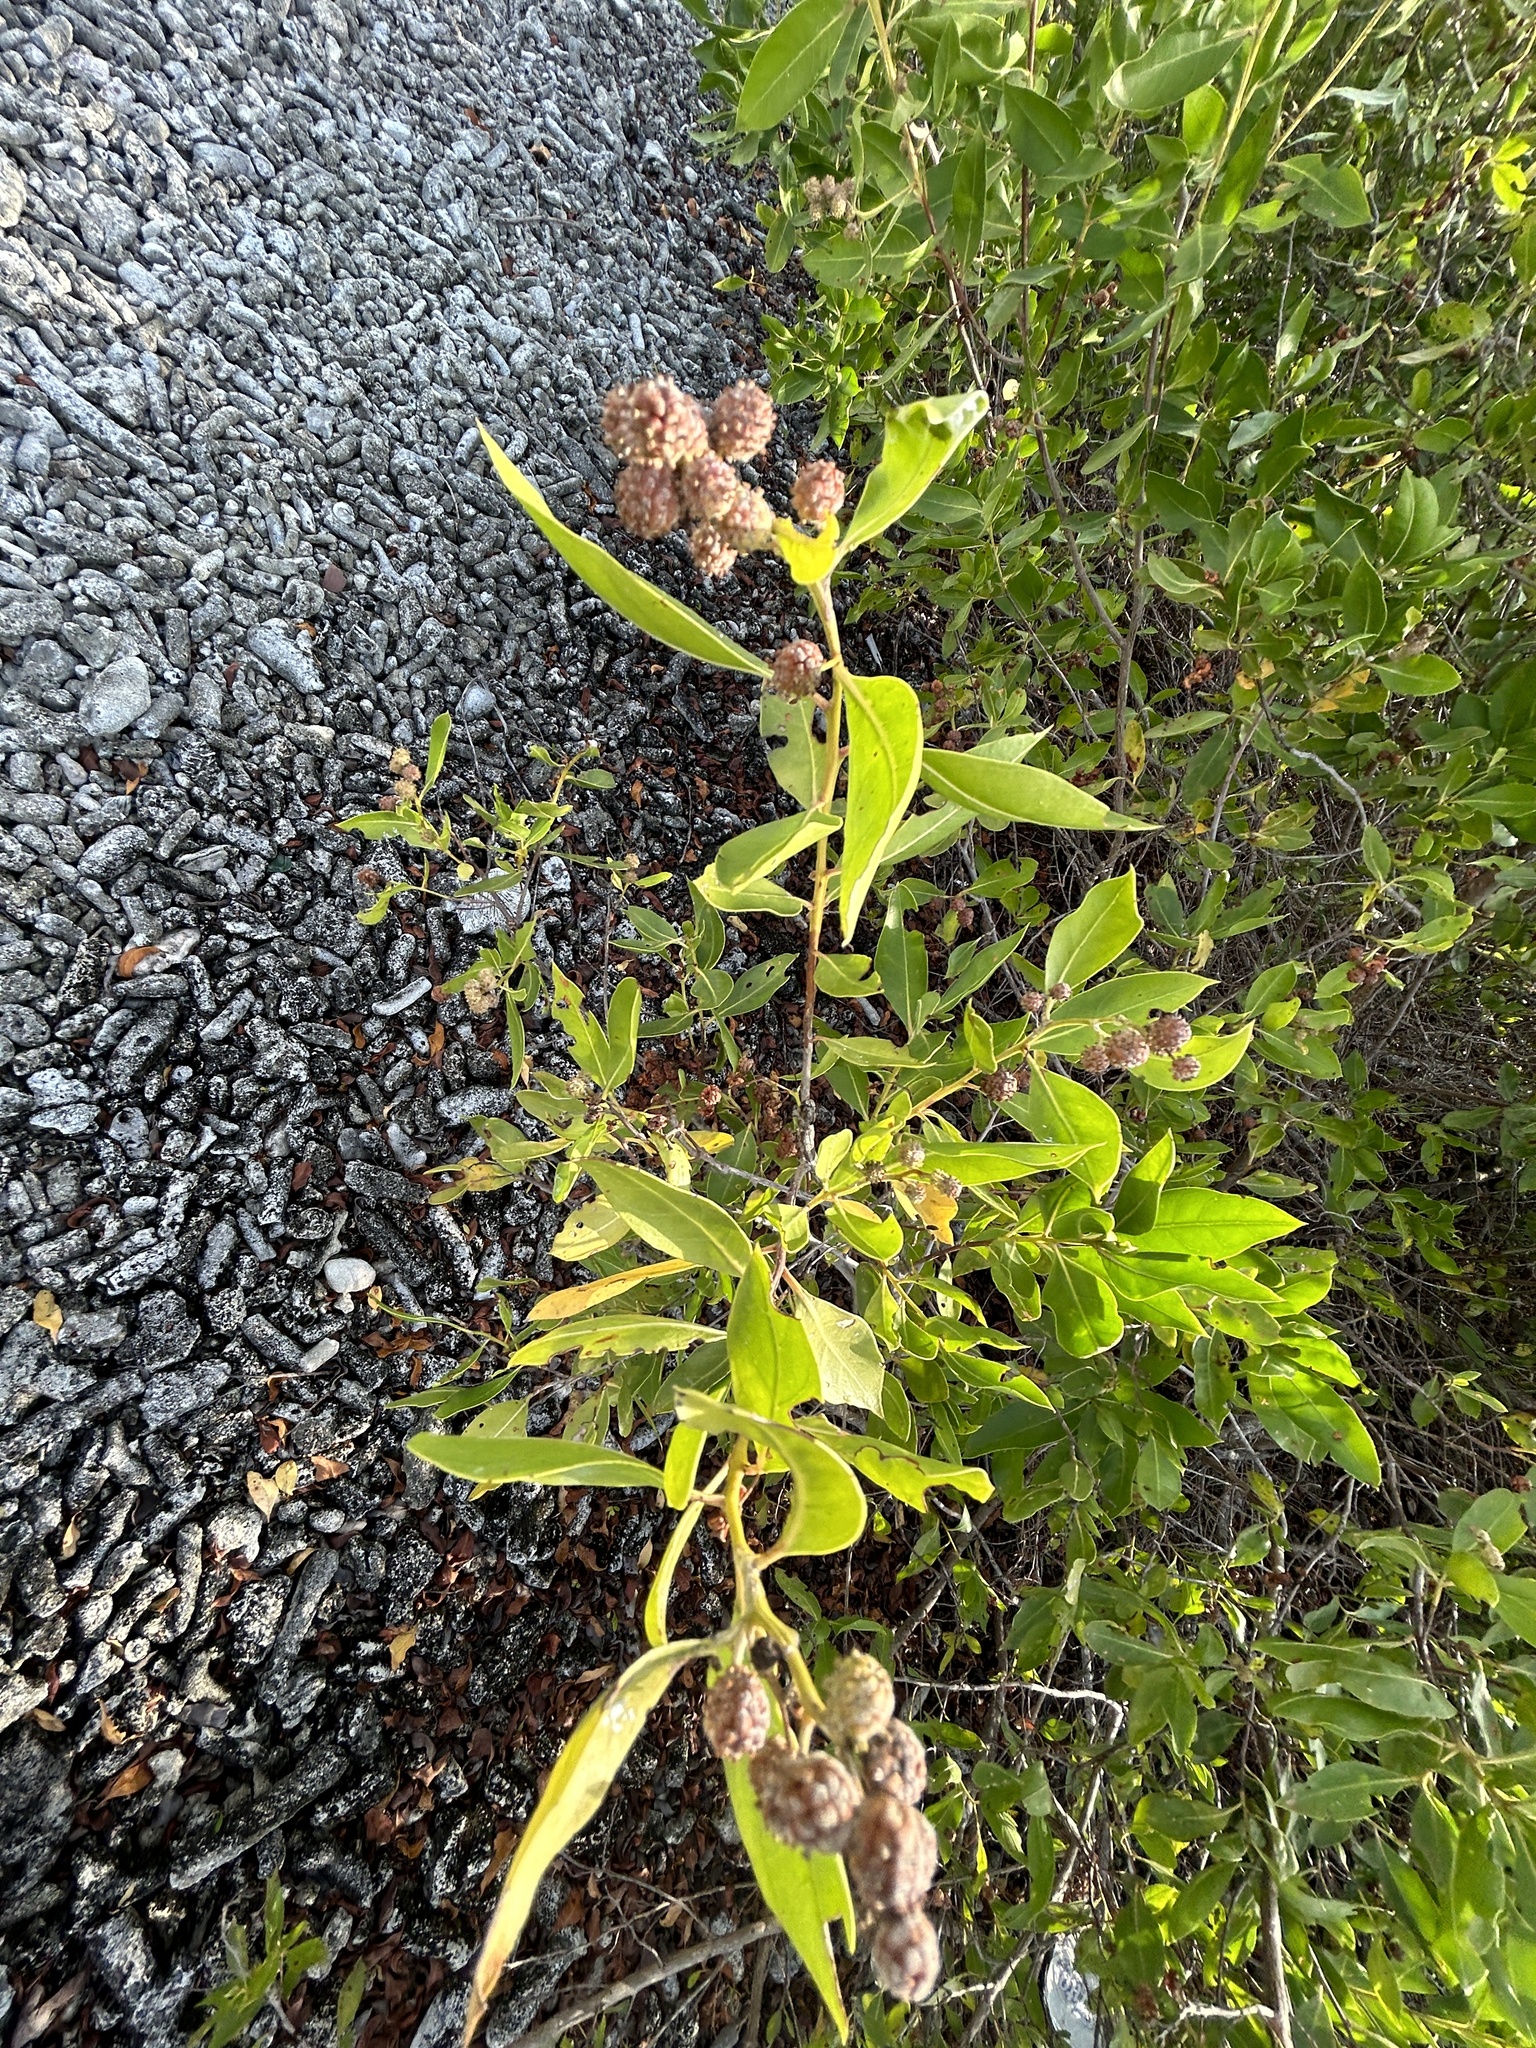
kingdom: Plantae
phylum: Tracheophyta
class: Magnoliopsida
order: Myrtales
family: Combretaceae
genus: Conocarpus
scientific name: Conocarpus erectus
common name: Button mangrove
